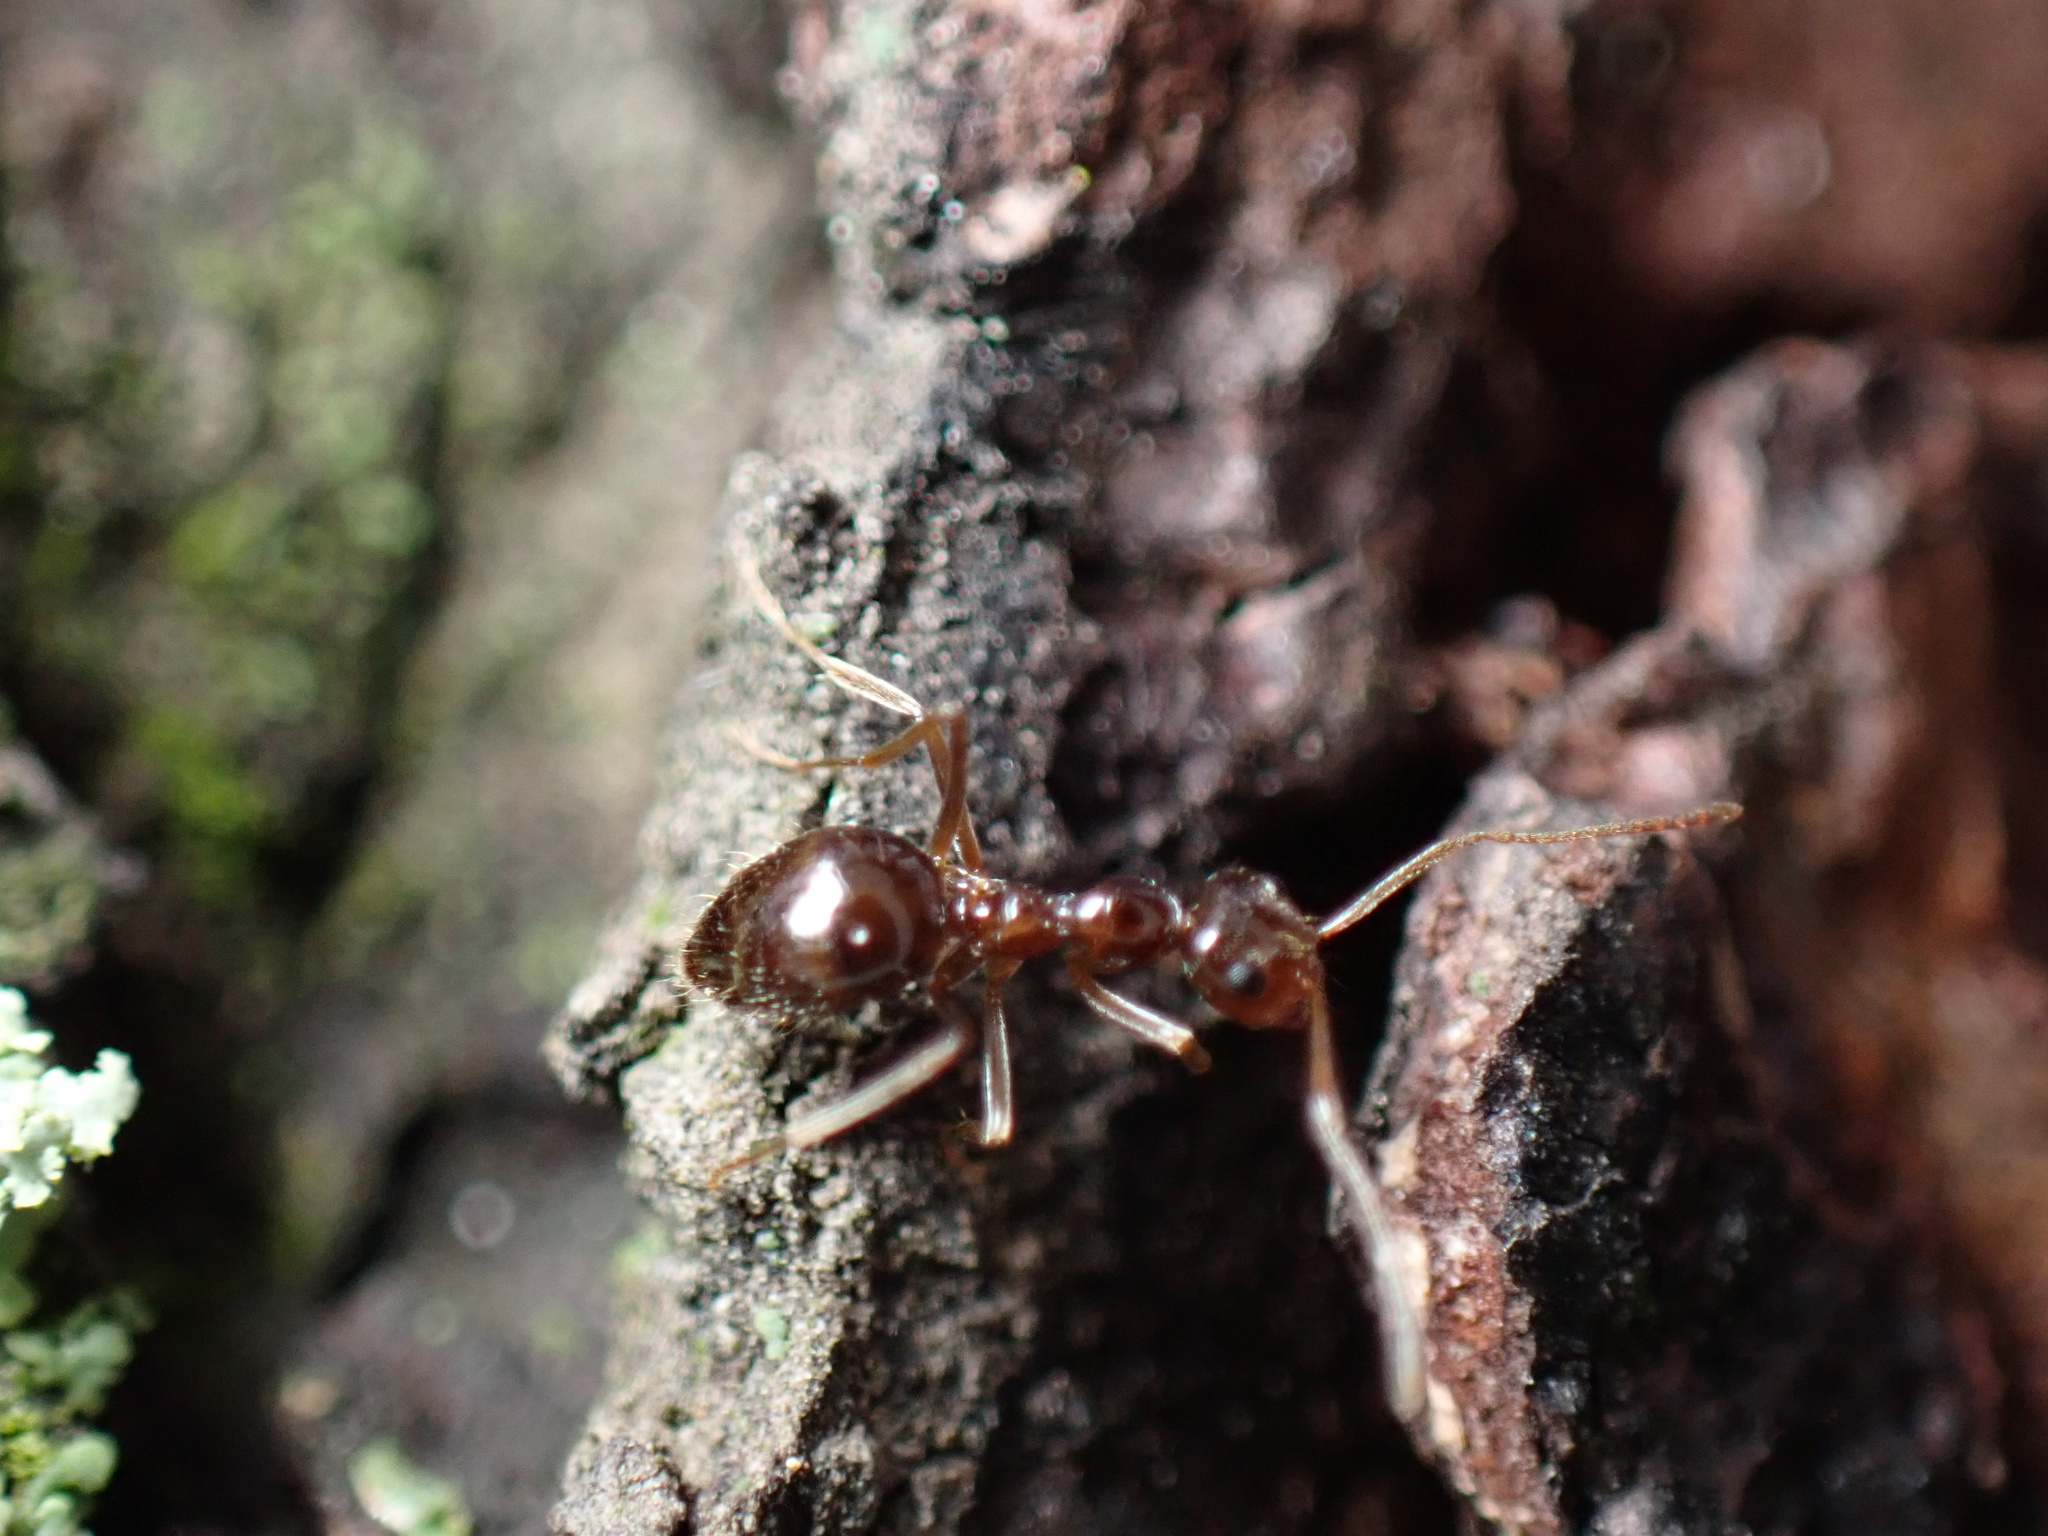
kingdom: Animalia
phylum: Arthropoda
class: Insecta
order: Hymenoptera
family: Formicidae
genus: Prenolepis
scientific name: Prenolepis imparis
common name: Small honey ant
